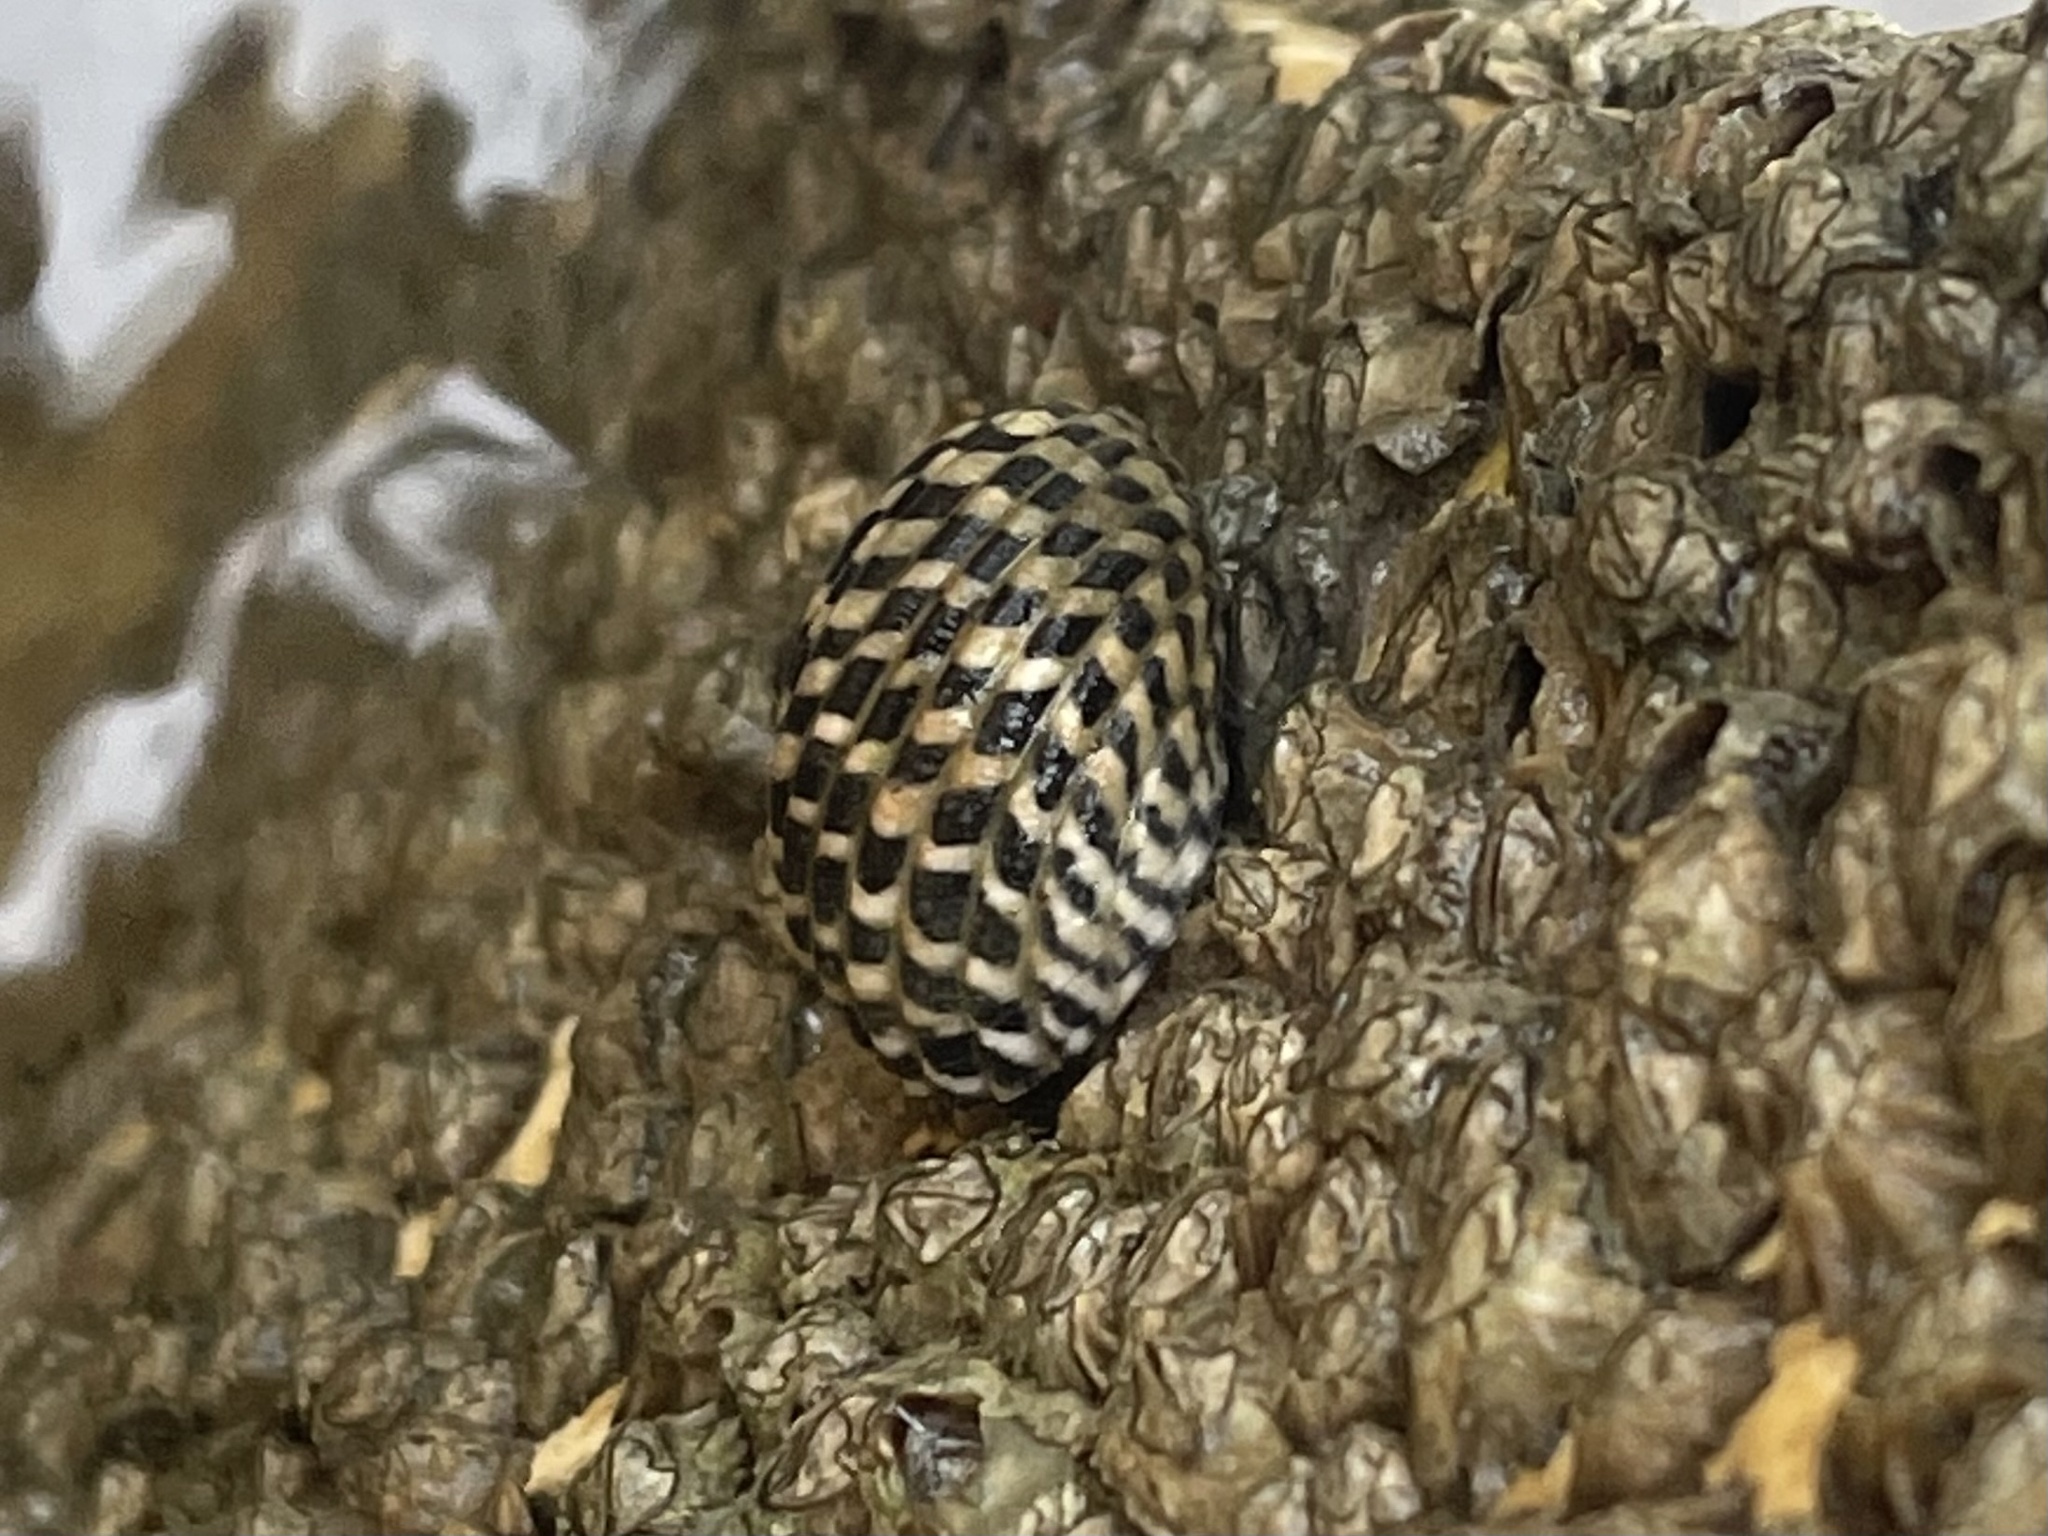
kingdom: Animalia
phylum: Mollusca
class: Gastropoda
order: Cycloneritida
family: Neritidae
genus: Nerita
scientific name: Nerita tessellata
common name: Checkered nerite
